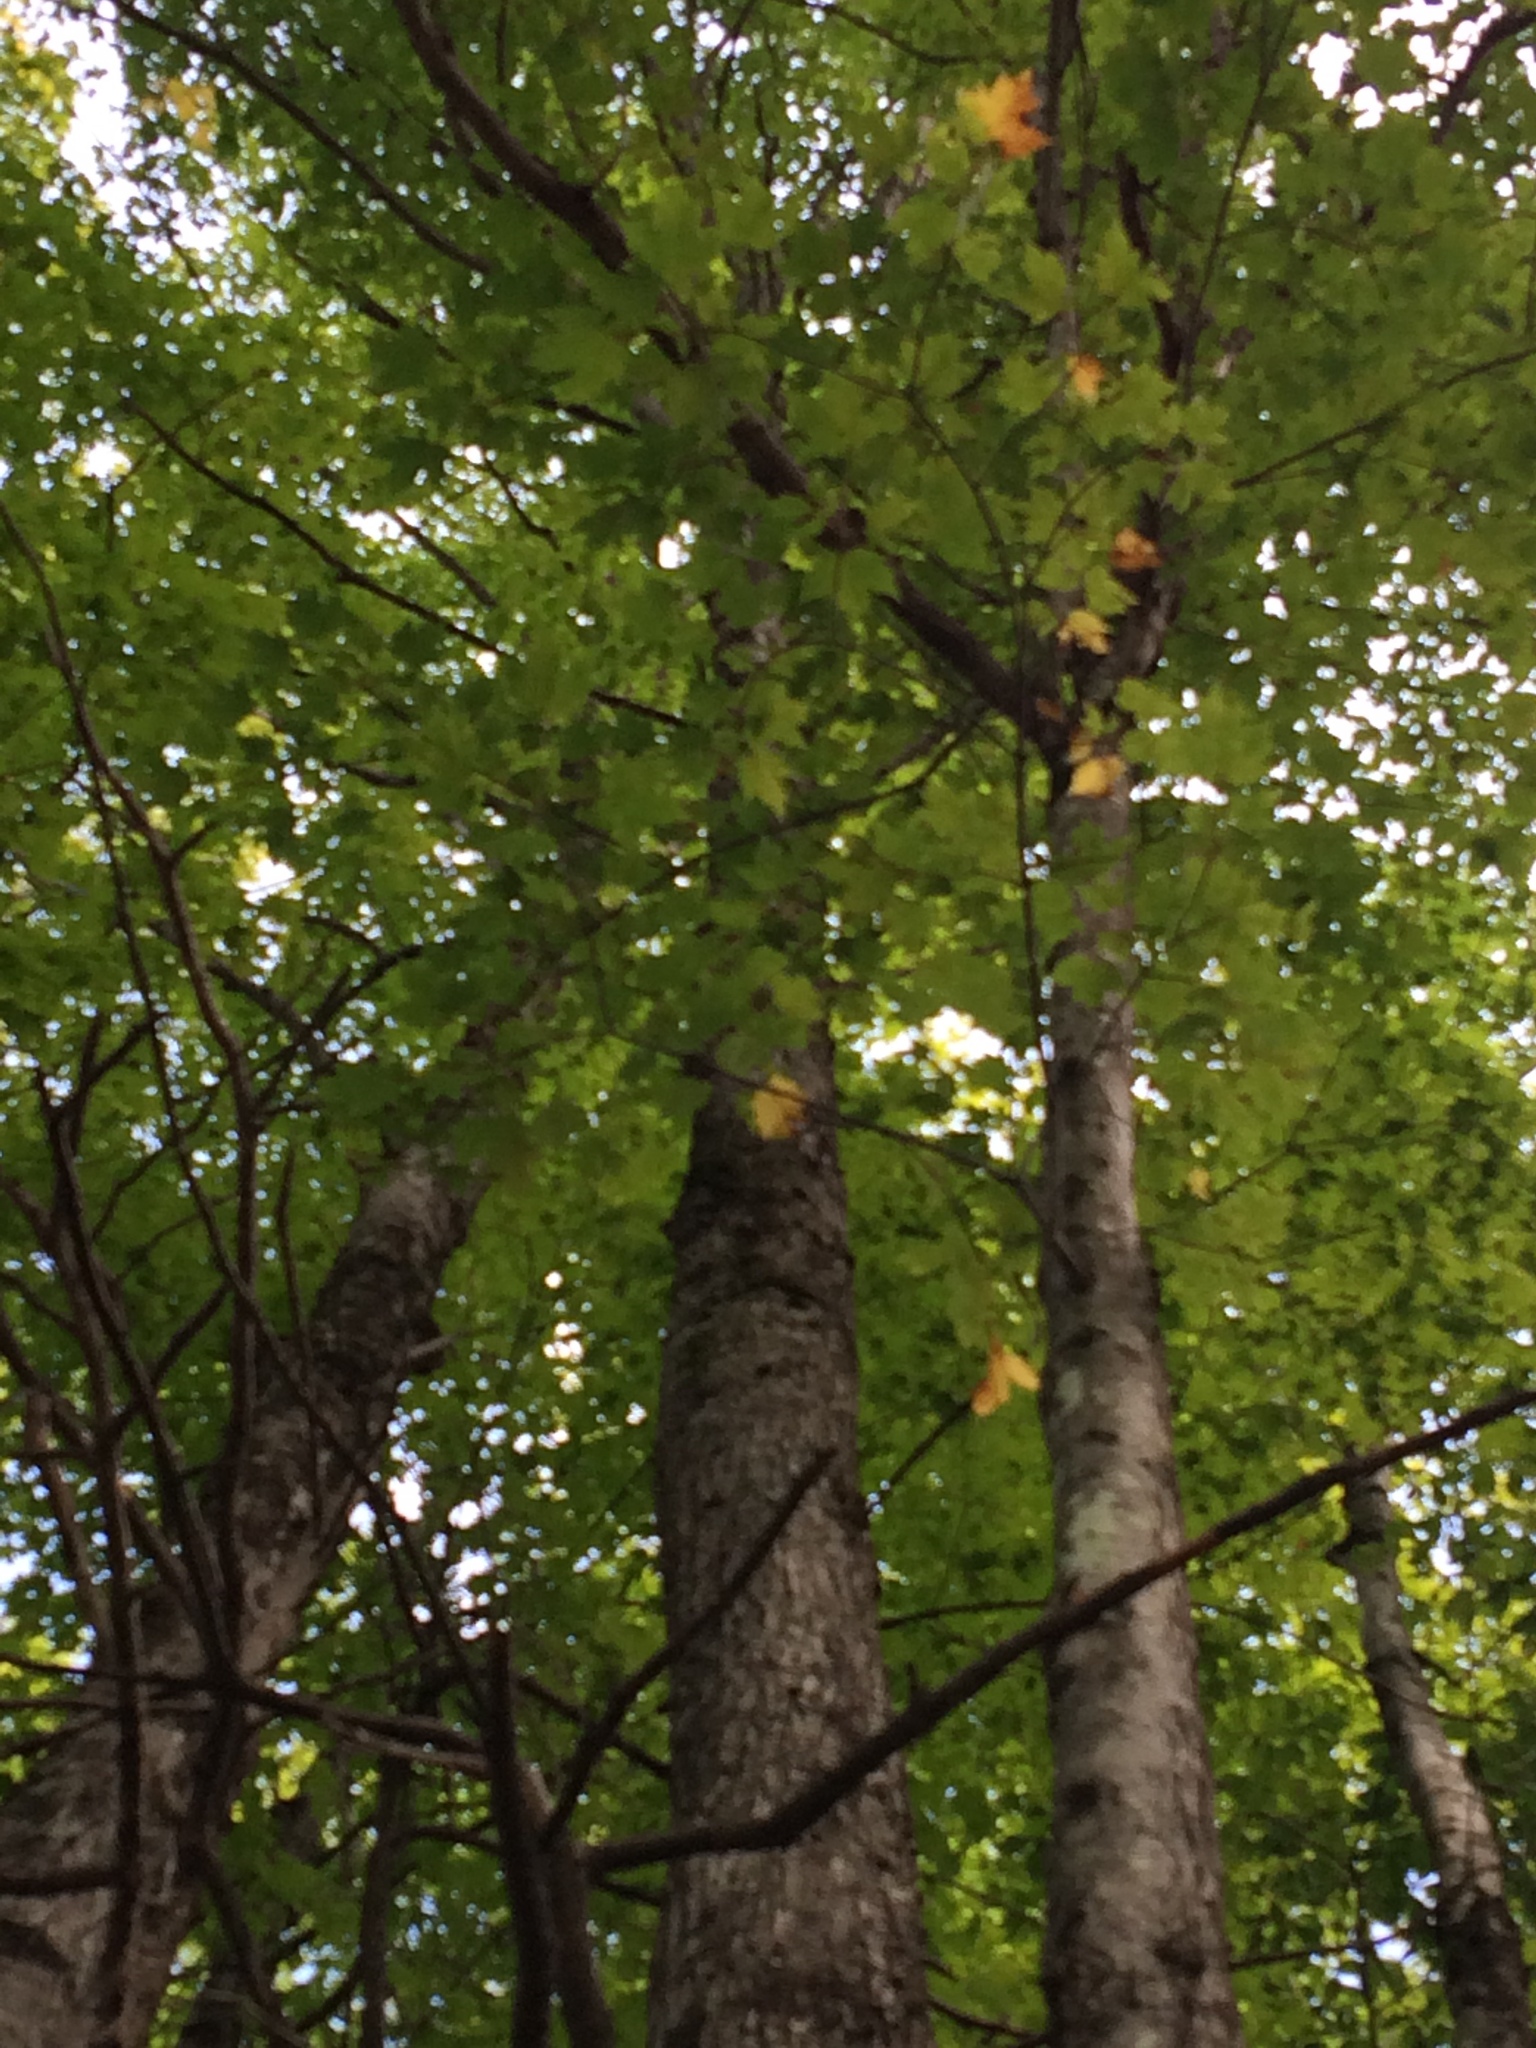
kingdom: Plantae
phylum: Tracheophyta
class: Magnoliopsida
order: Sapindales
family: Sapindaceae
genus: Acer
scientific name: Acer rubrum
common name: Red maple
